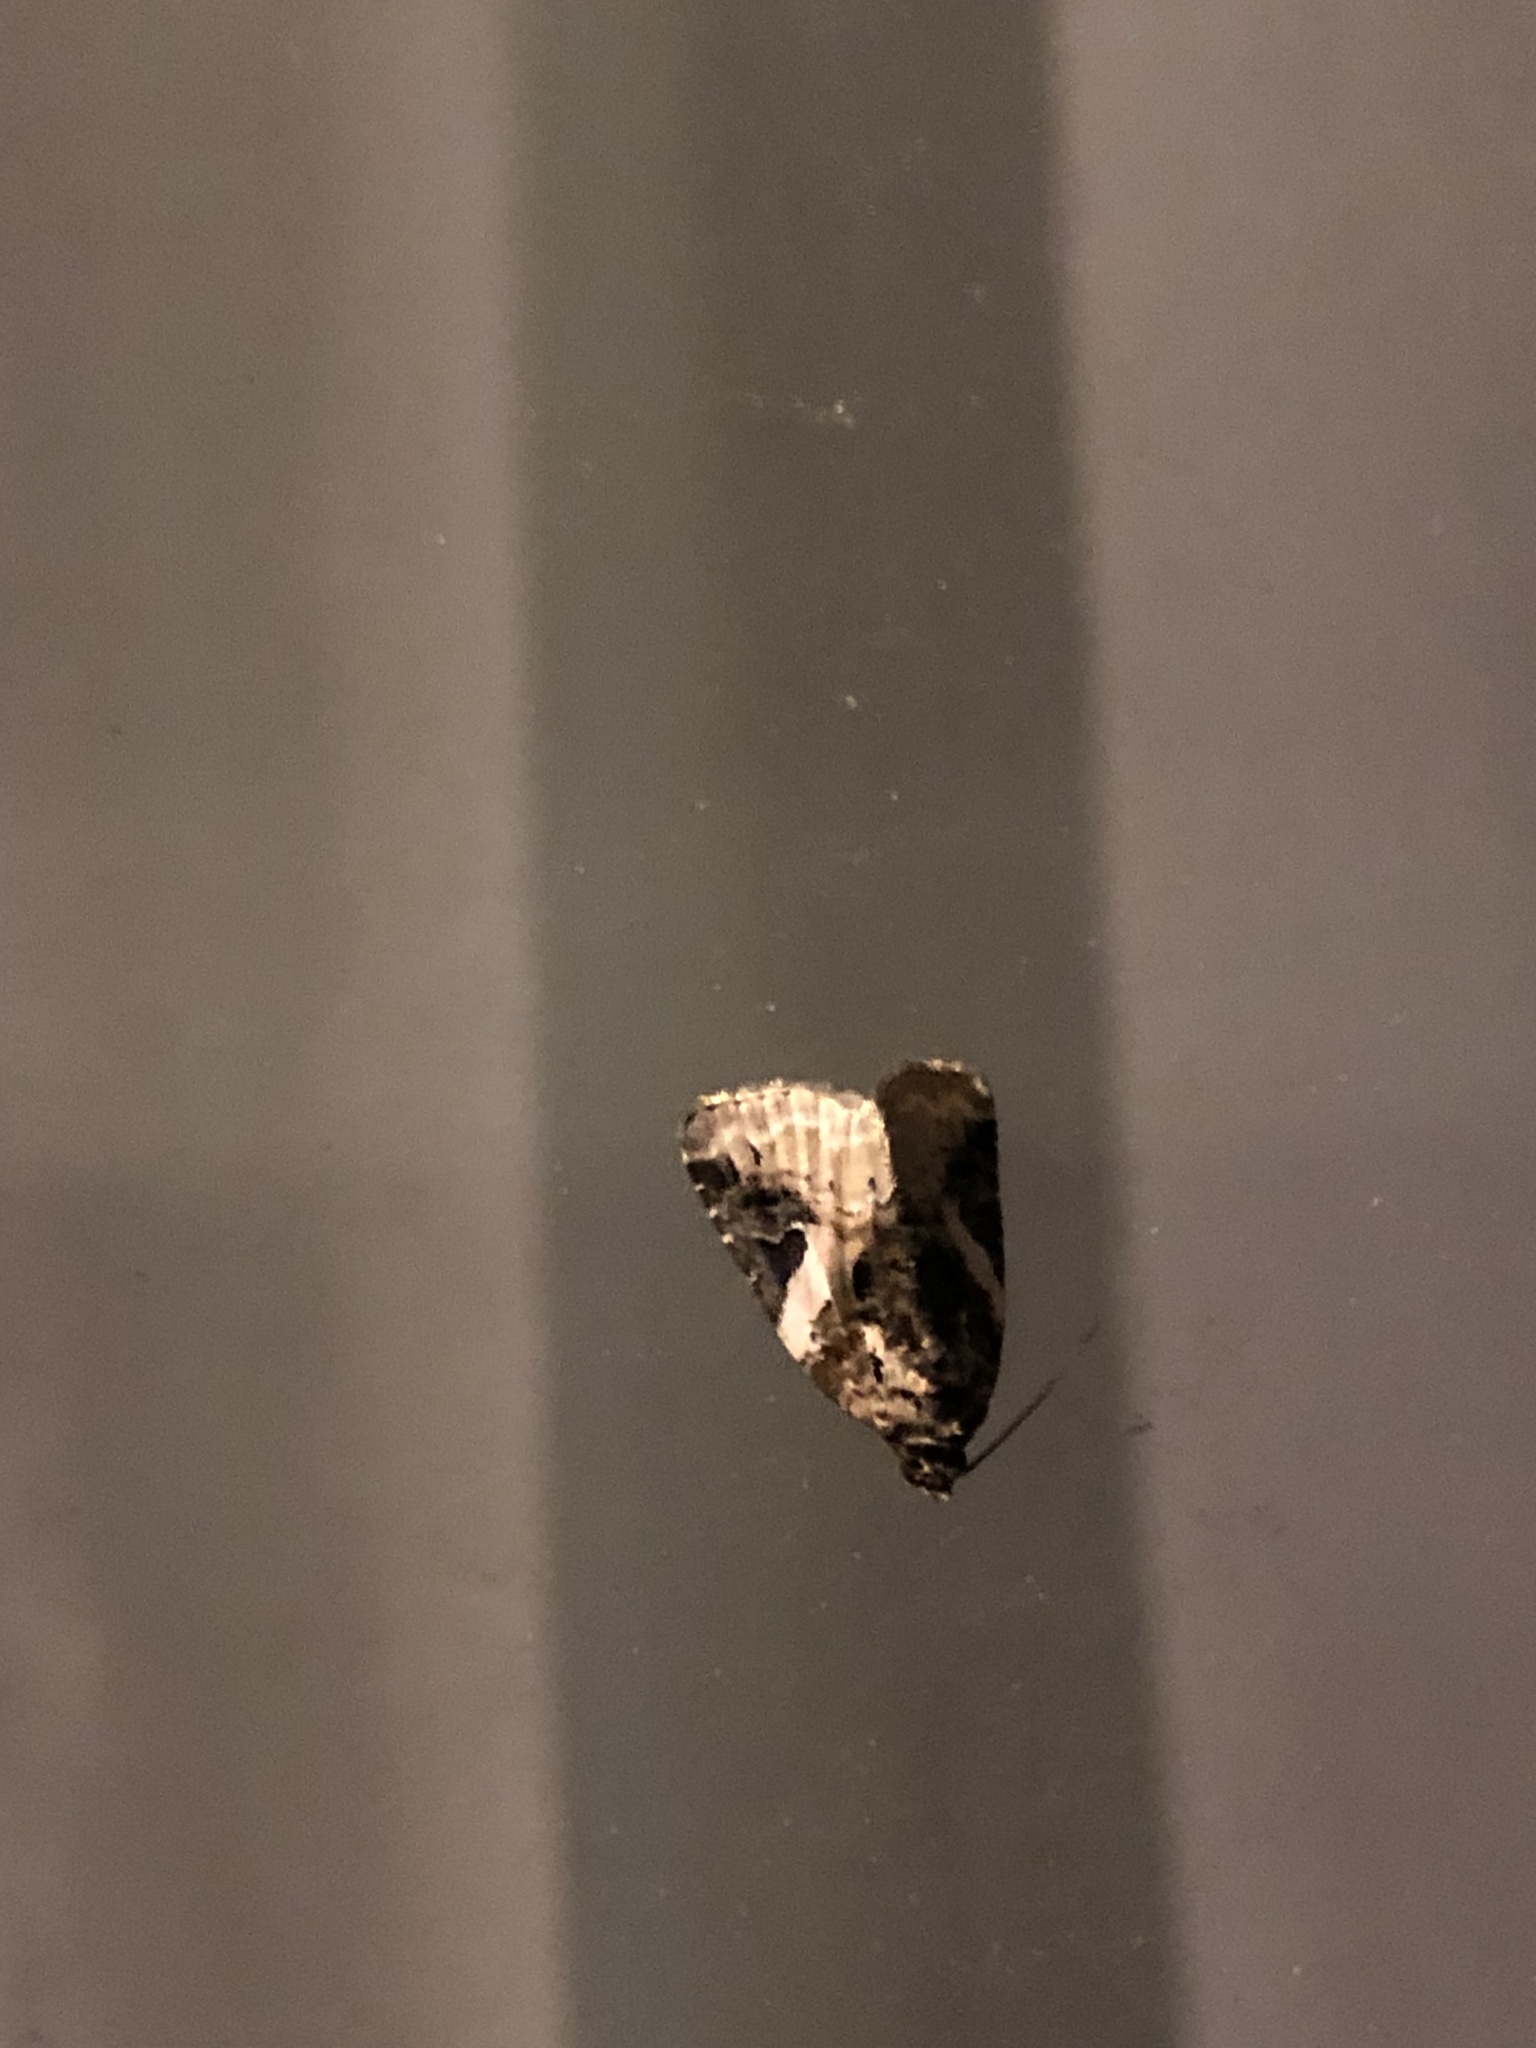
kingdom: Animalia
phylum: Arthropoda
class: Insecta
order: Lepidoptera
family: Noctuidae
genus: Pseudeustrotia
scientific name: Pseudeustrotia carneola
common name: Pink-barred lithacodia moth
